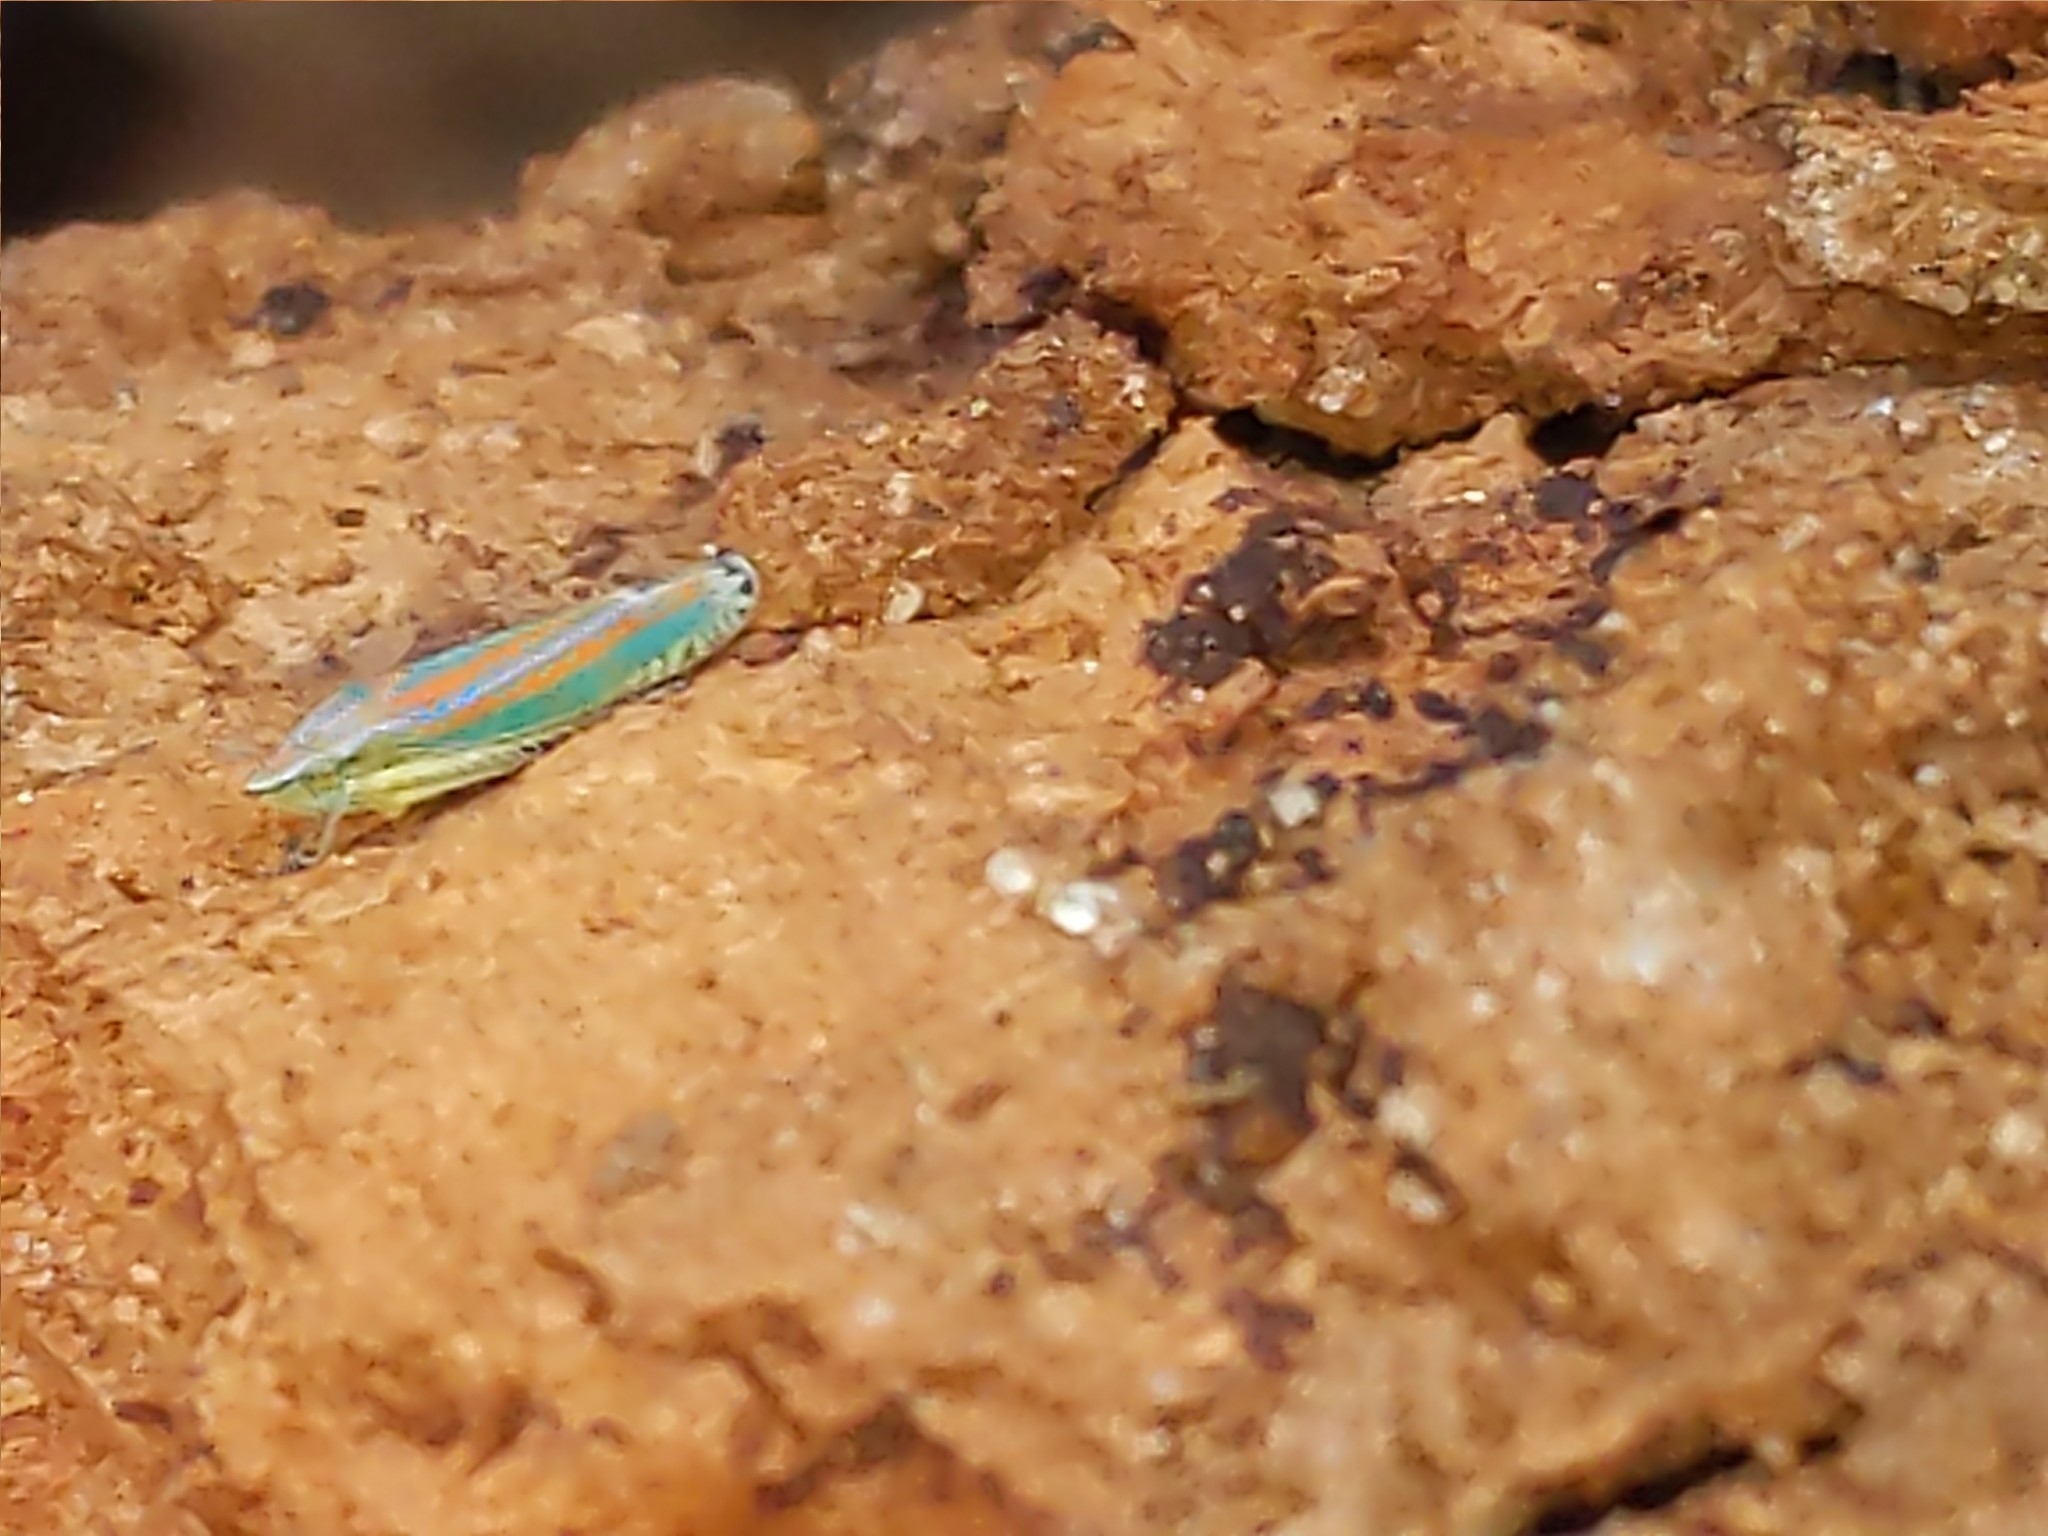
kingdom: Animalia
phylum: Arthropoda
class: Insecta
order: Hemiptera
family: Cicadellidae
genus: Graphocephala
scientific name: Graphocephala versuta
